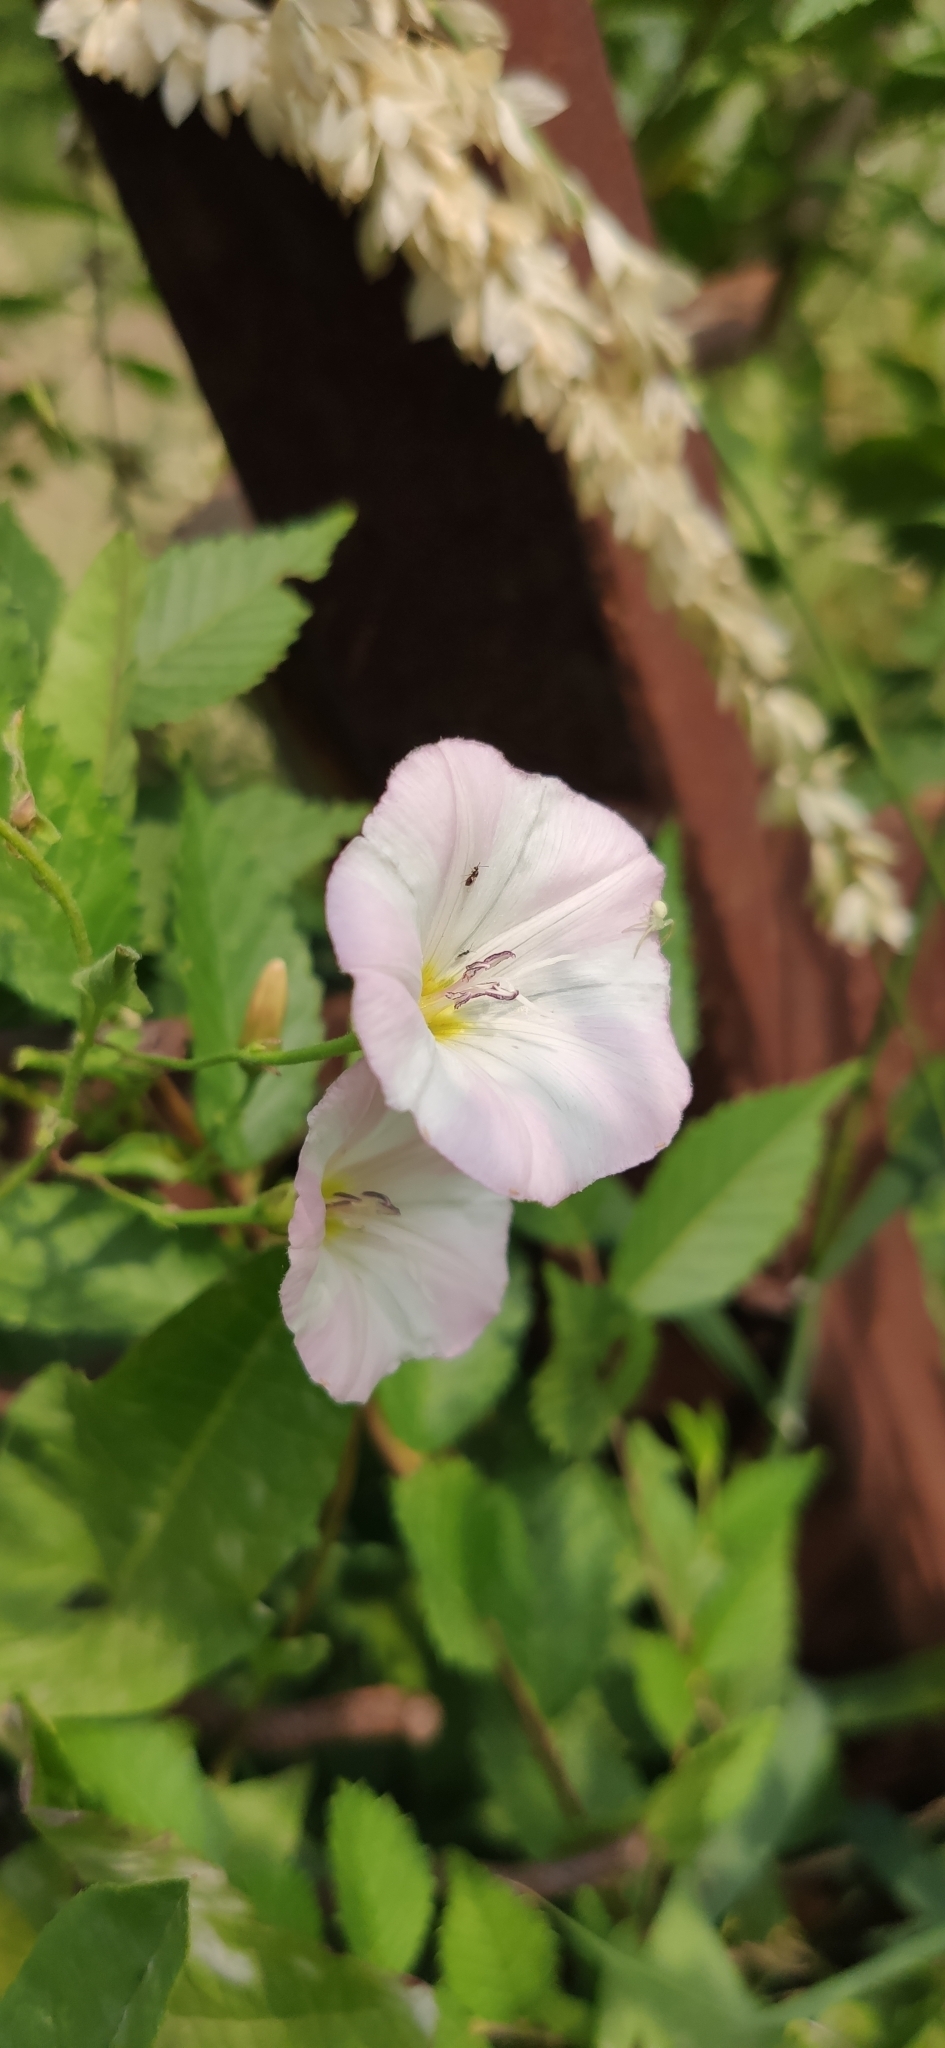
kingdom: Plantae
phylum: Tracheophyta
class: Magnoliopsida
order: Solanales
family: Convolvulaceae
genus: Convolvulus
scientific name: Convolvulus arvensis
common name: Field bindweed
